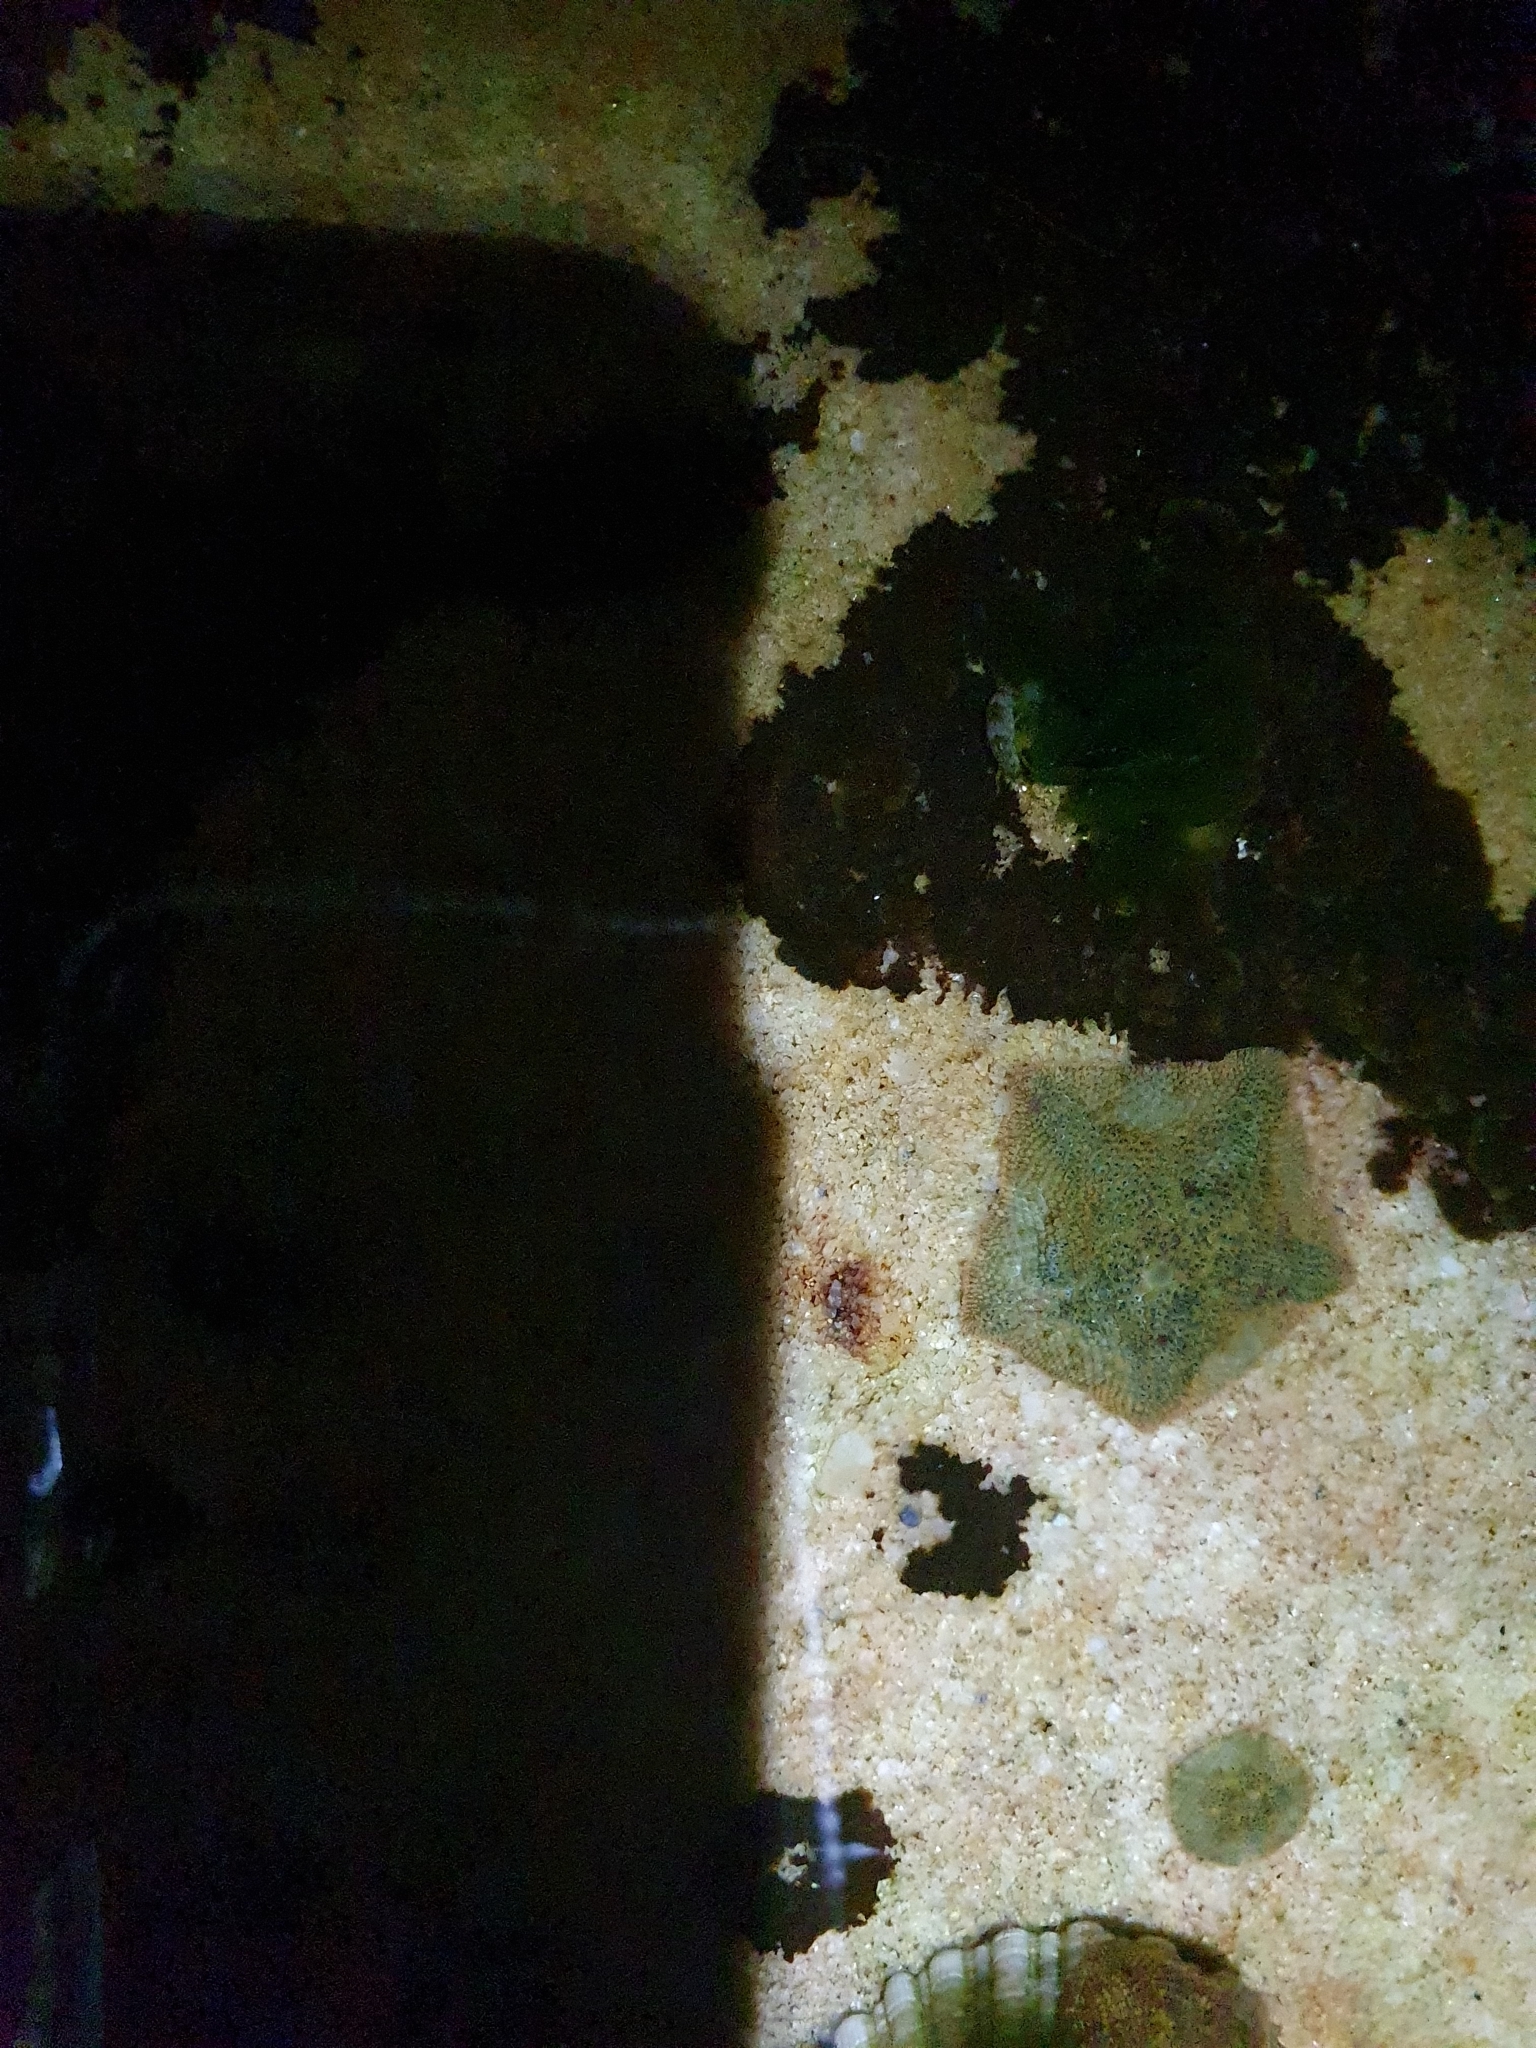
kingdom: Animalia
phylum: Echinodermata
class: Asteroidea
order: Valvatida
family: Asterinidae
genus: Parvulastra
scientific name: Parvulastra exigua
